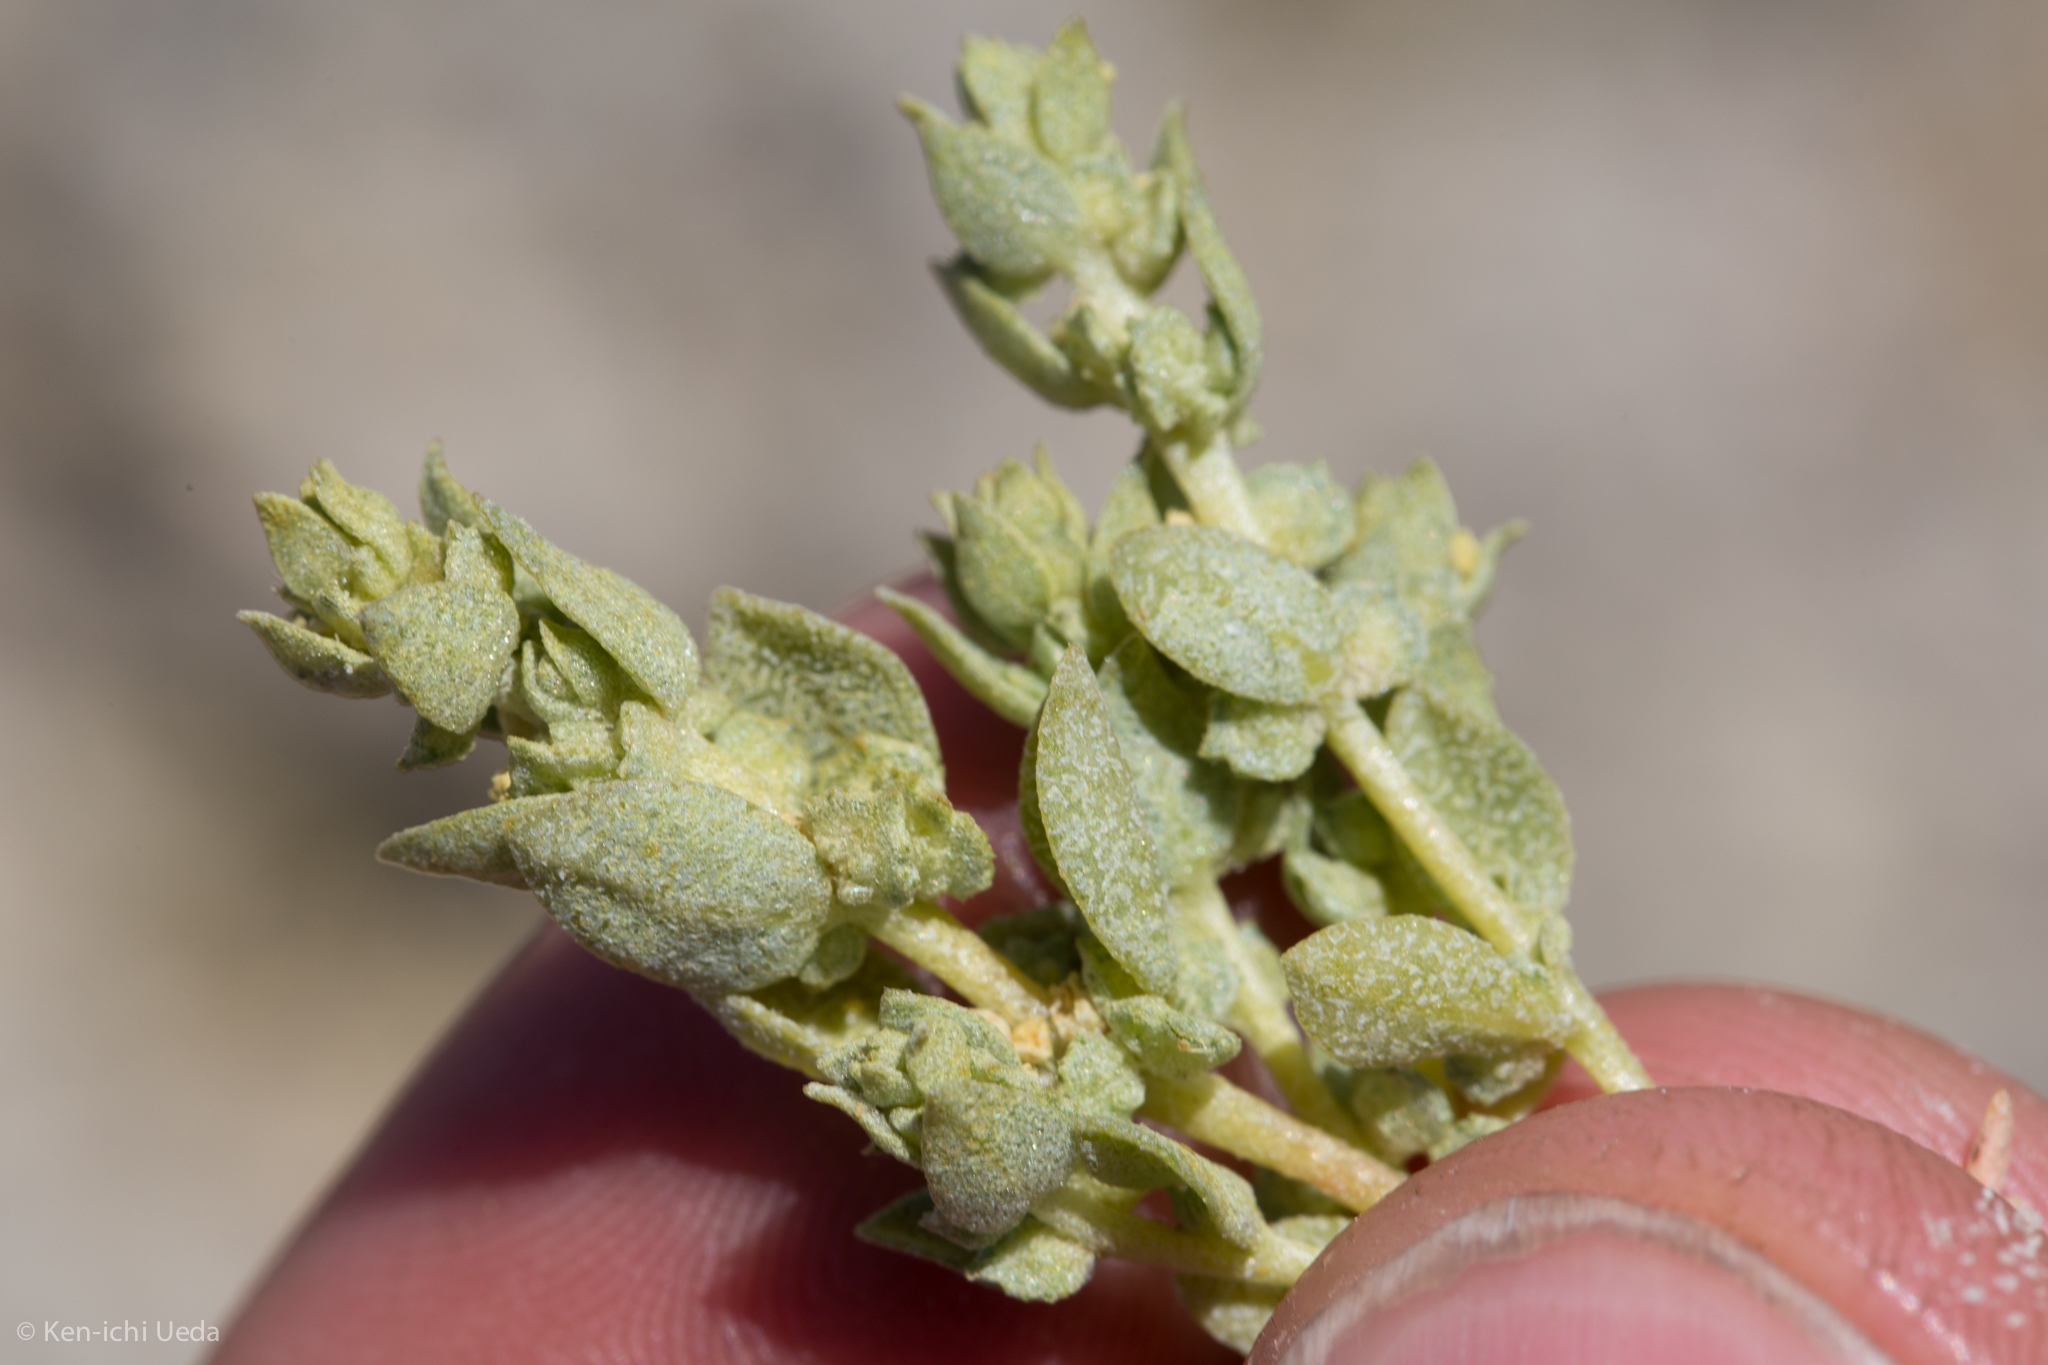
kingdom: Plantae
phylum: Tracheophyta
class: Magnoliopsida
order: Caryophyllales
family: Amaranthaceae
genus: Atriplex
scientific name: Atriplex coronata
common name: Crownscale
